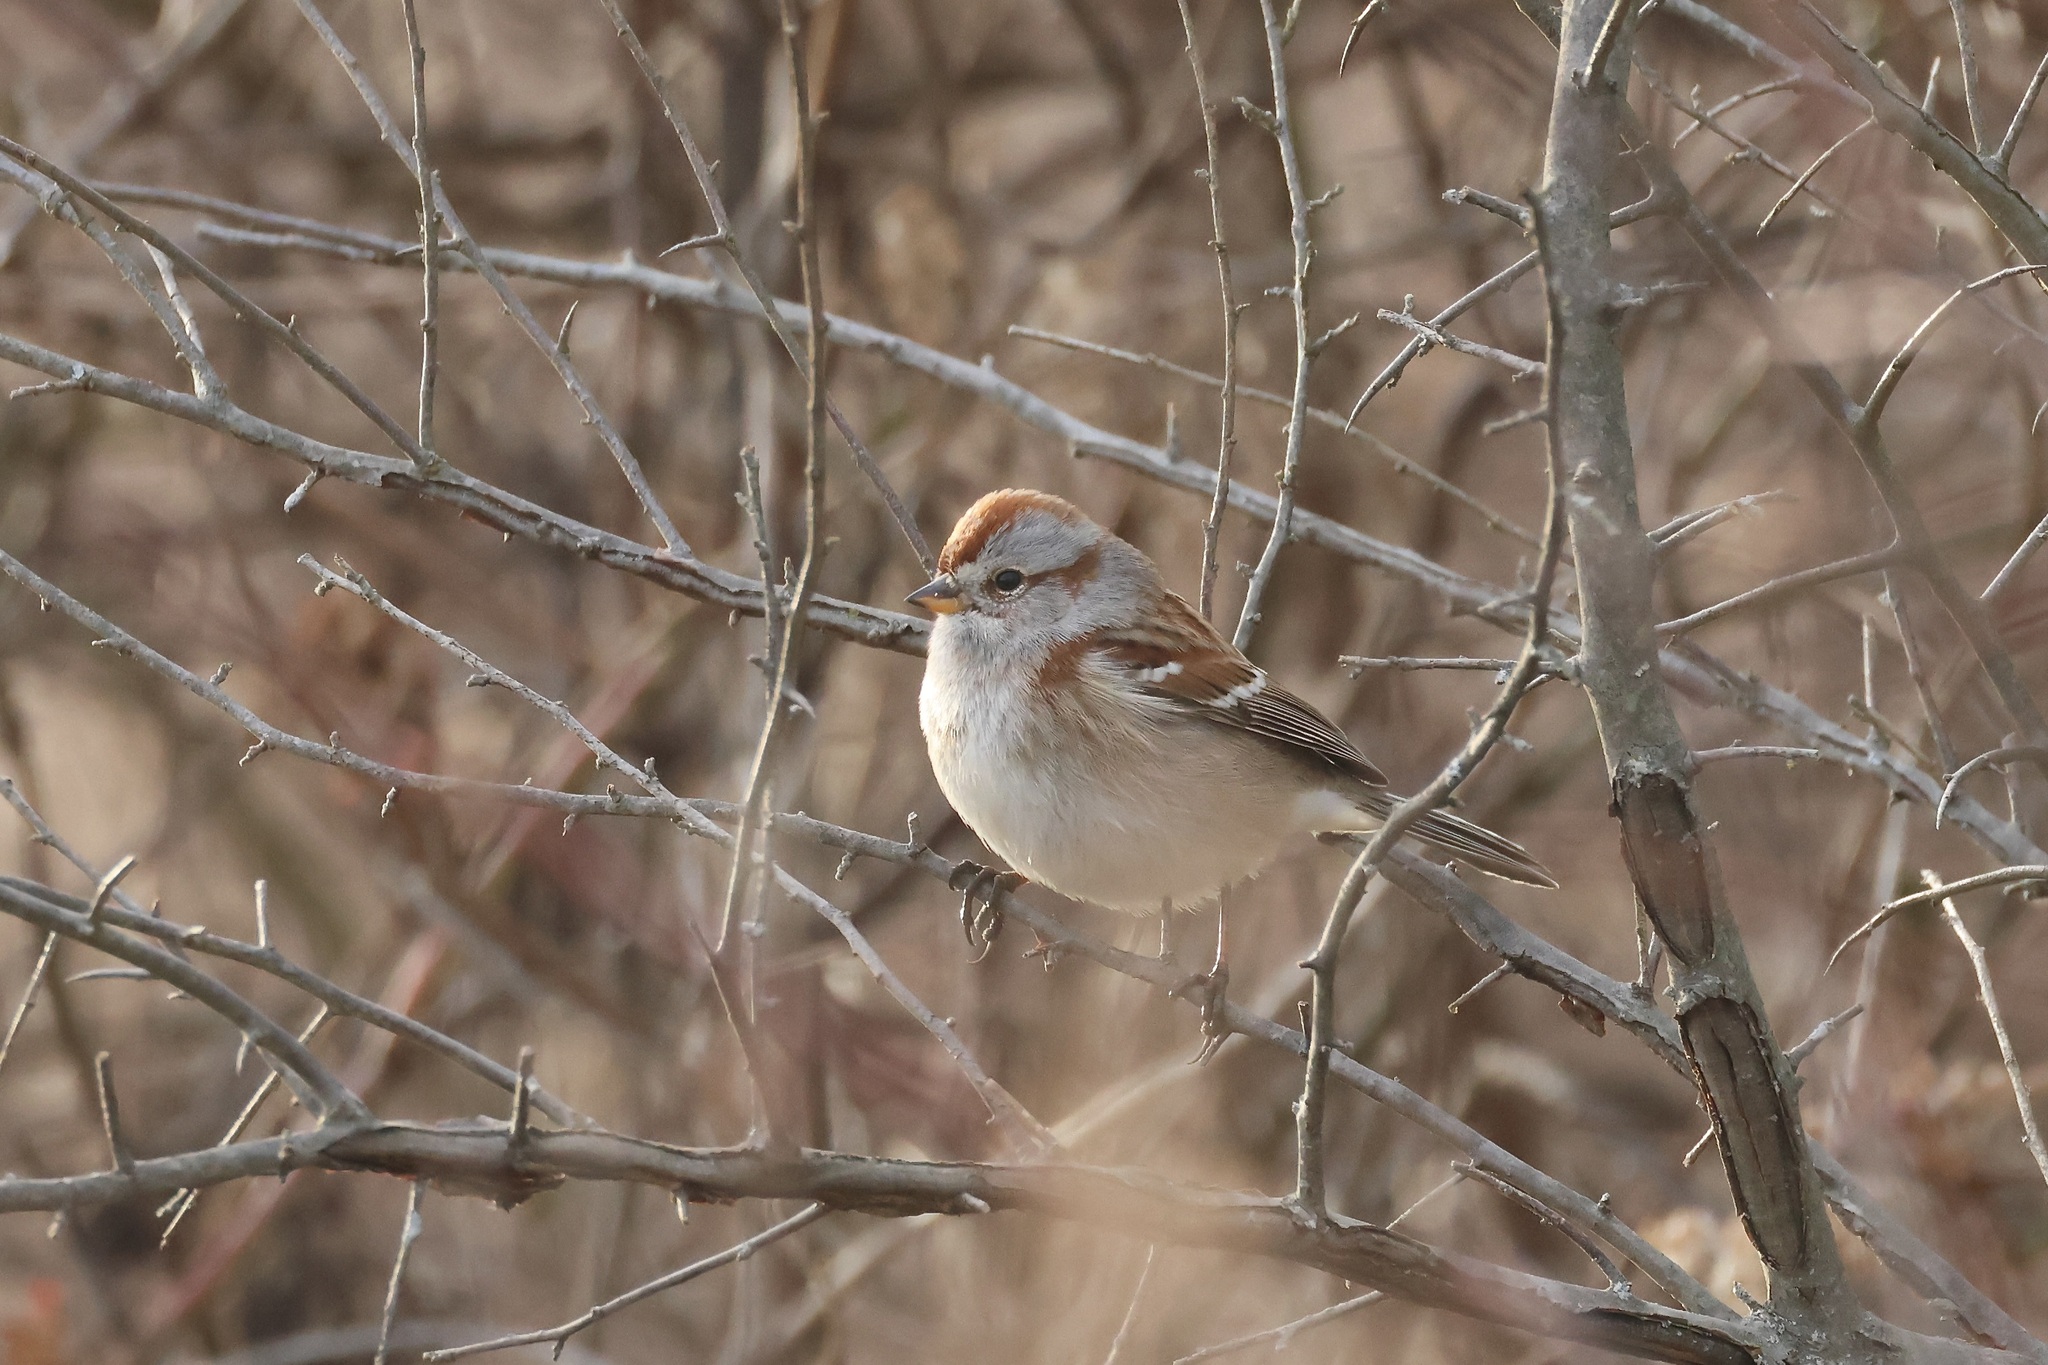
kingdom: Animalia
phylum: Chordata
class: Aves
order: Passeriformes
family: Passerellidae
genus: Spizelloides
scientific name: Spizelloides arborea
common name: American tree sparrow
